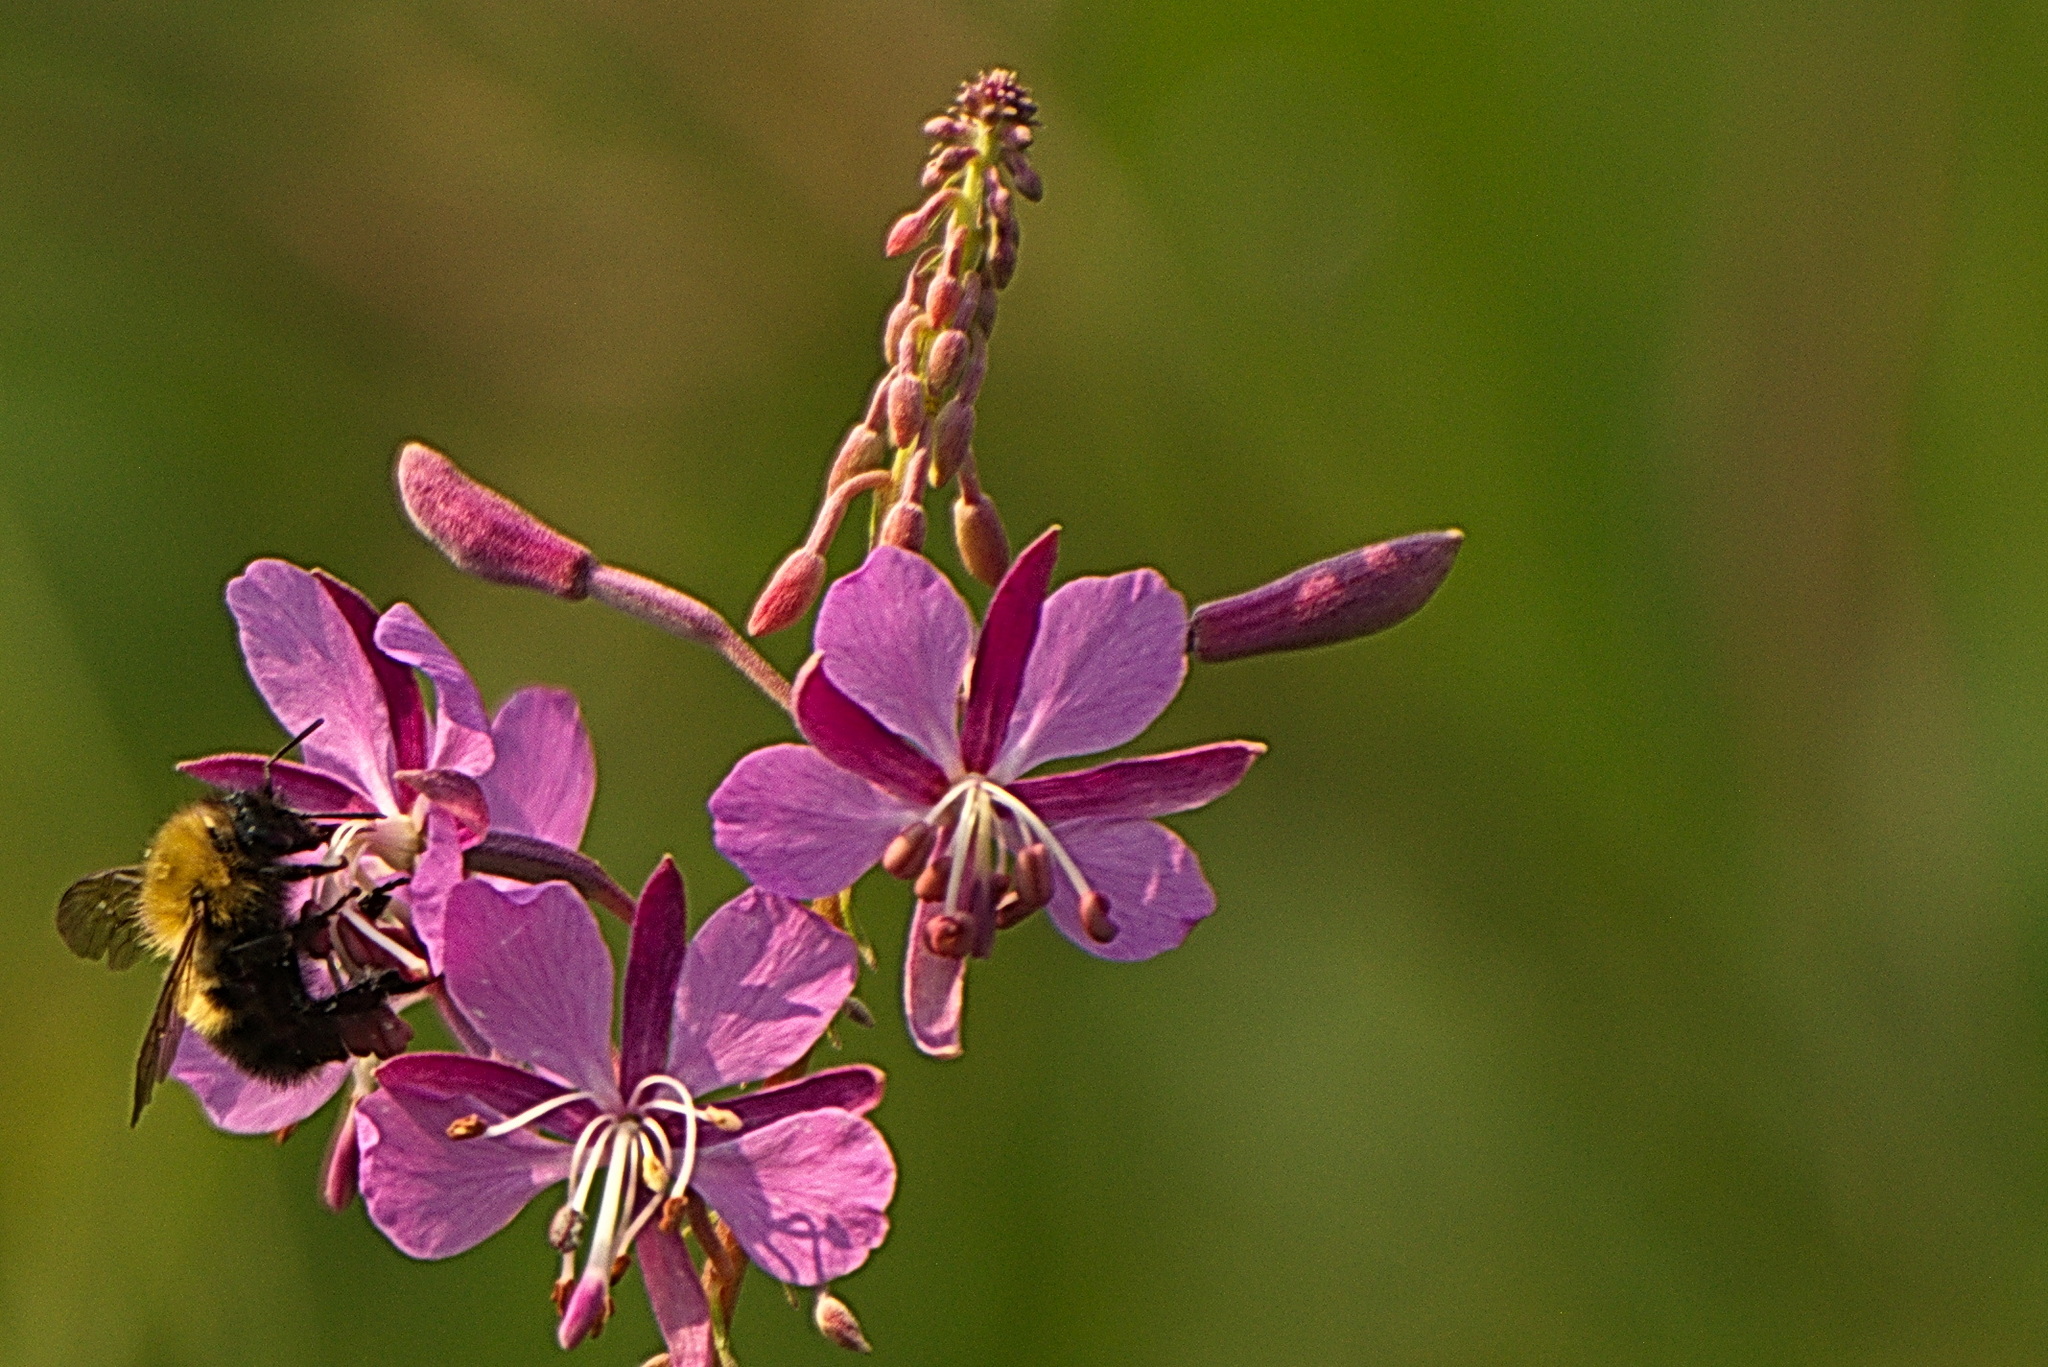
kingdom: Animalia
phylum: Arthropoda
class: Insecta
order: Hymenoptera
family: Apidae
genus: Bombus
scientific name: Bombus perplexus
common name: Confusing bumble bee
